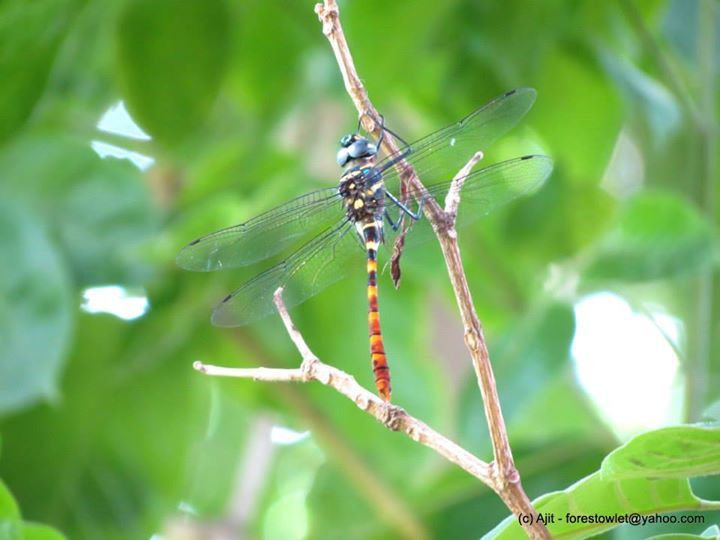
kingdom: Animalia
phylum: Arthropoda
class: Insecta
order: Odonata
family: Macromiidae
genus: Epophthalmia
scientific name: Epophthalmia vittata
